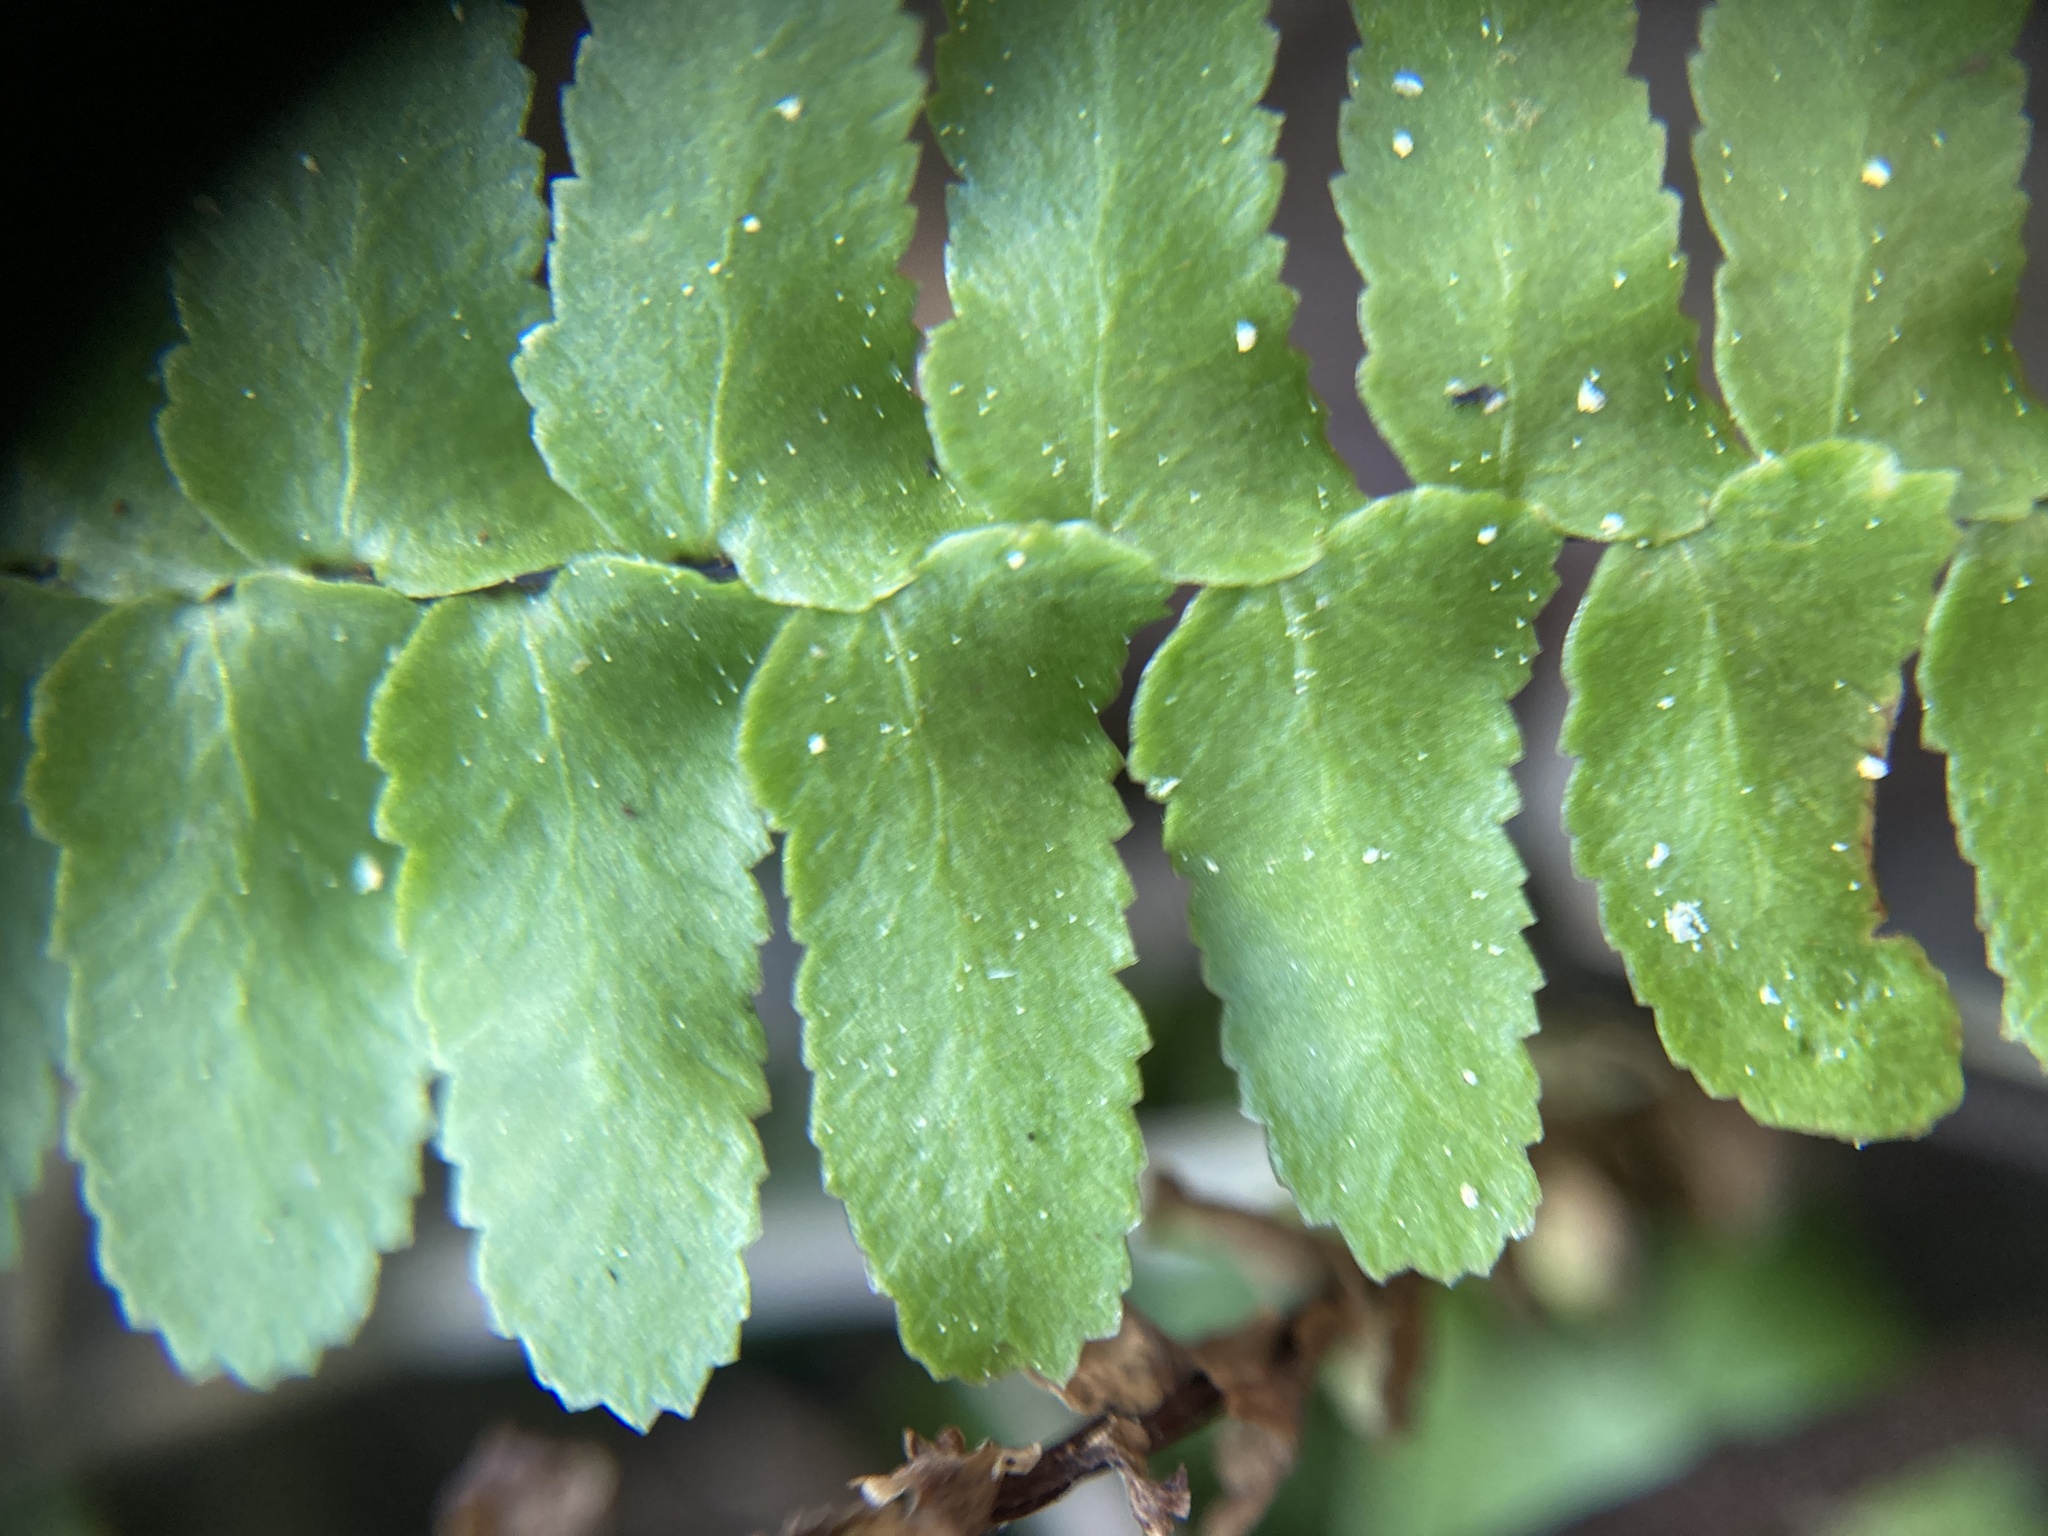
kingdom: Plantae
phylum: Tracheophyta
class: Polypodiopsida
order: Polypodiales
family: Aspleniaceae
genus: Asplenium
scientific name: Asplenium platyneuron
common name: Ebony spleenwort
